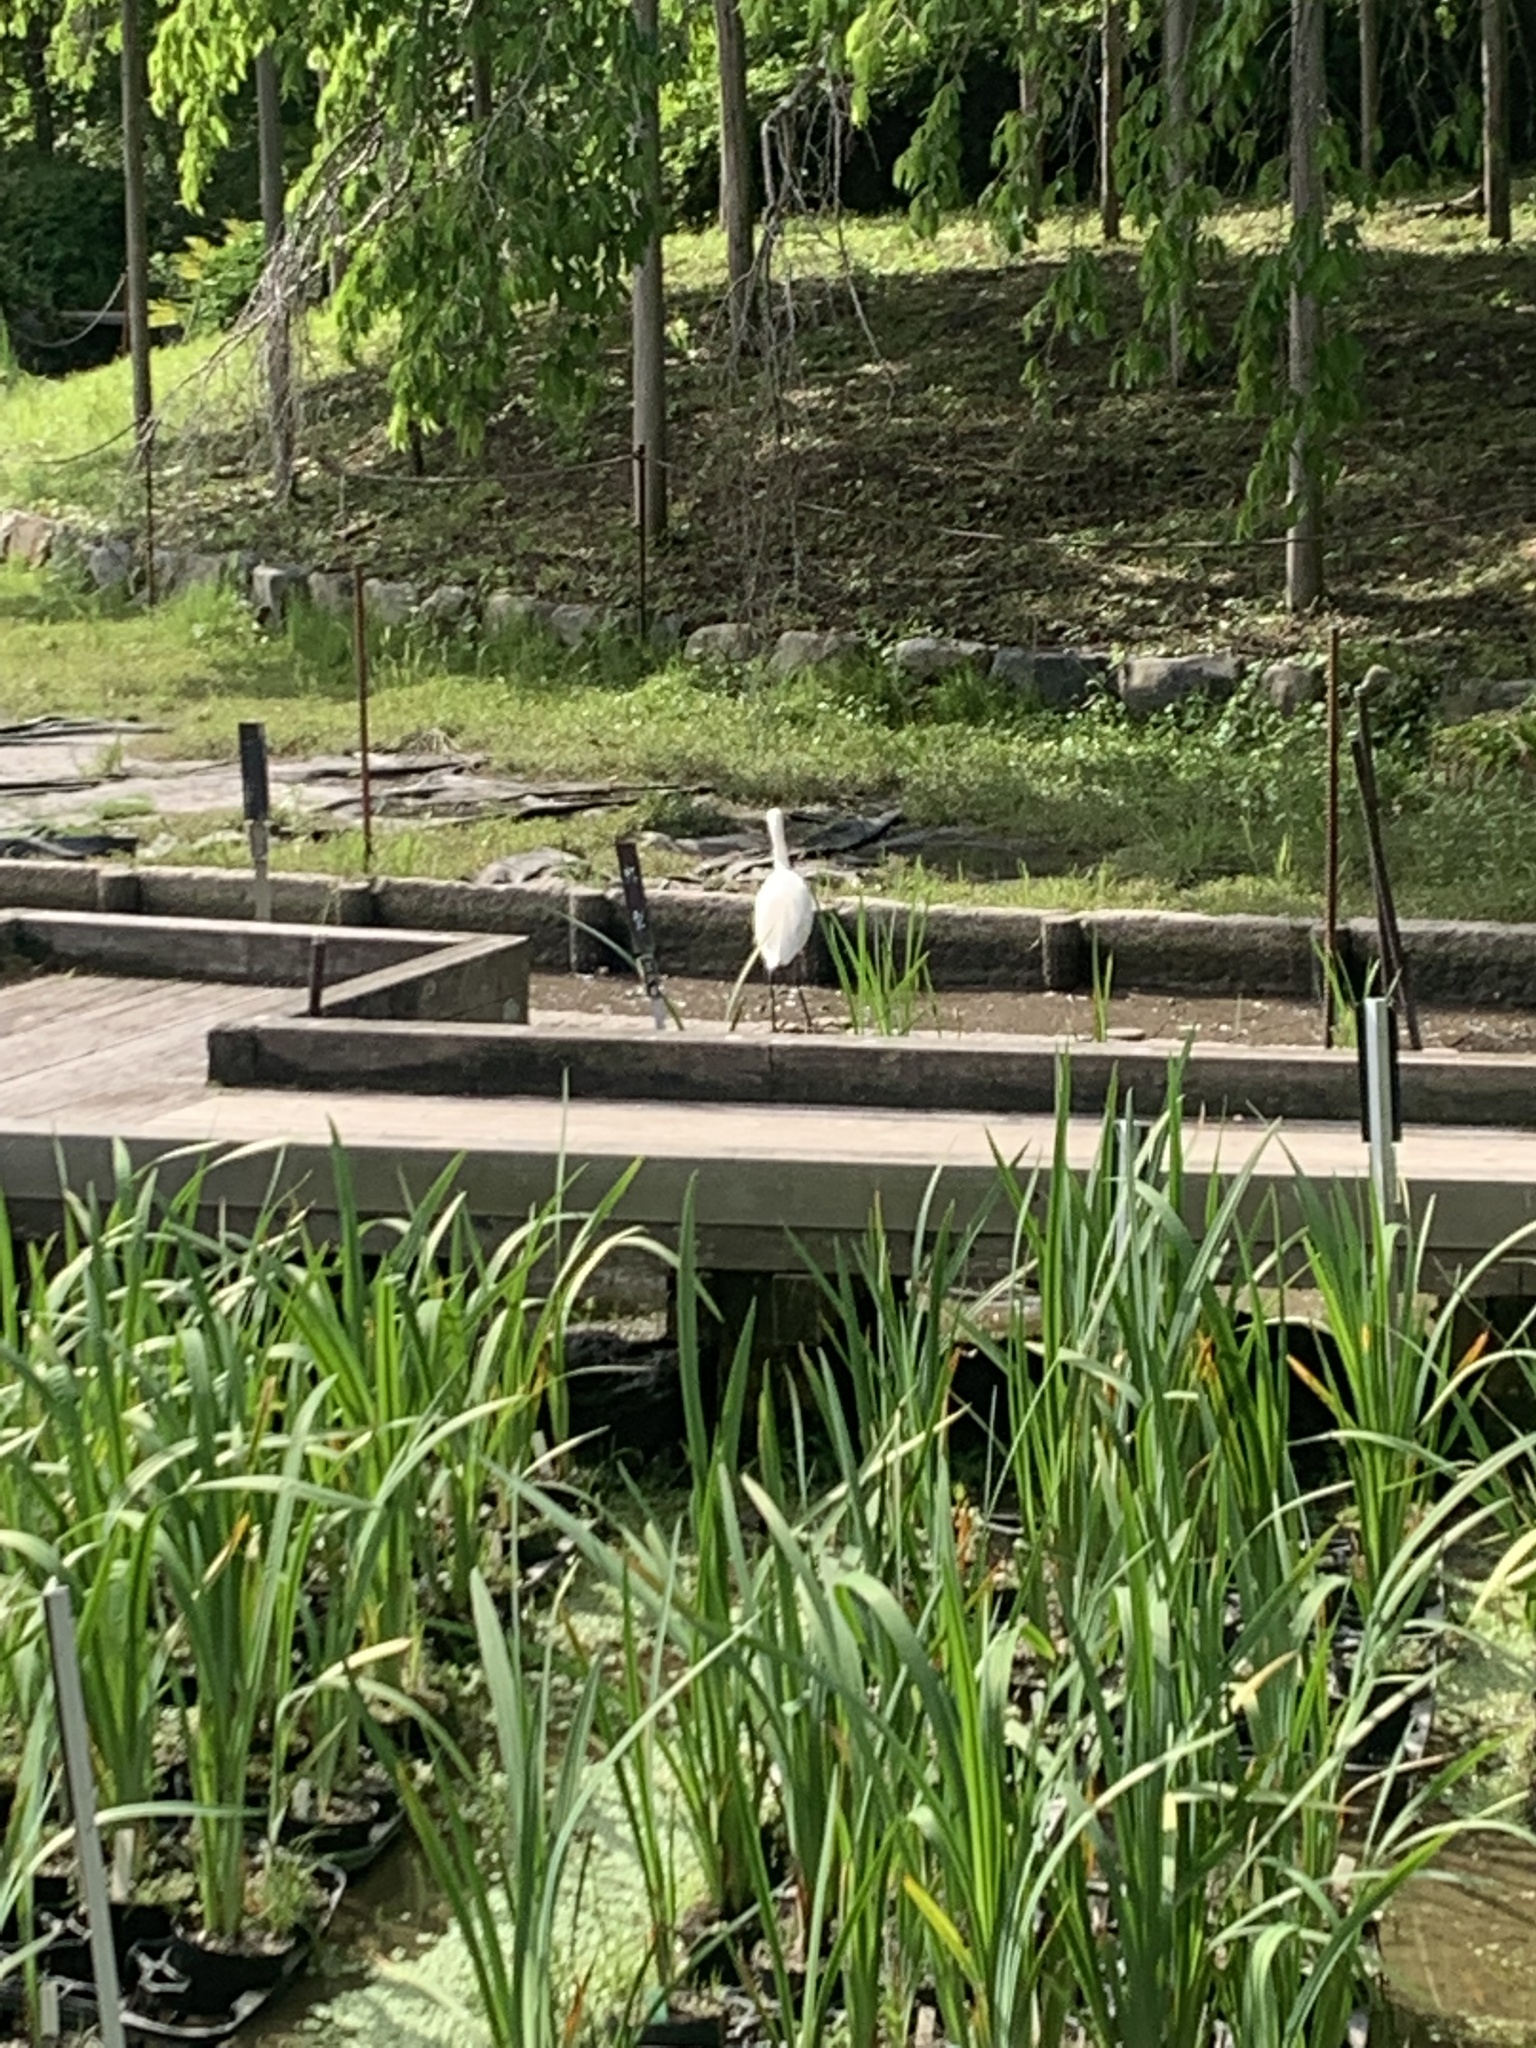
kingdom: Animalia
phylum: Chordata
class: Aves
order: Pelecaniformes
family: Ardeidae
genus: Egretta
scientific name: Egretta garzetta
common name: Little egret
